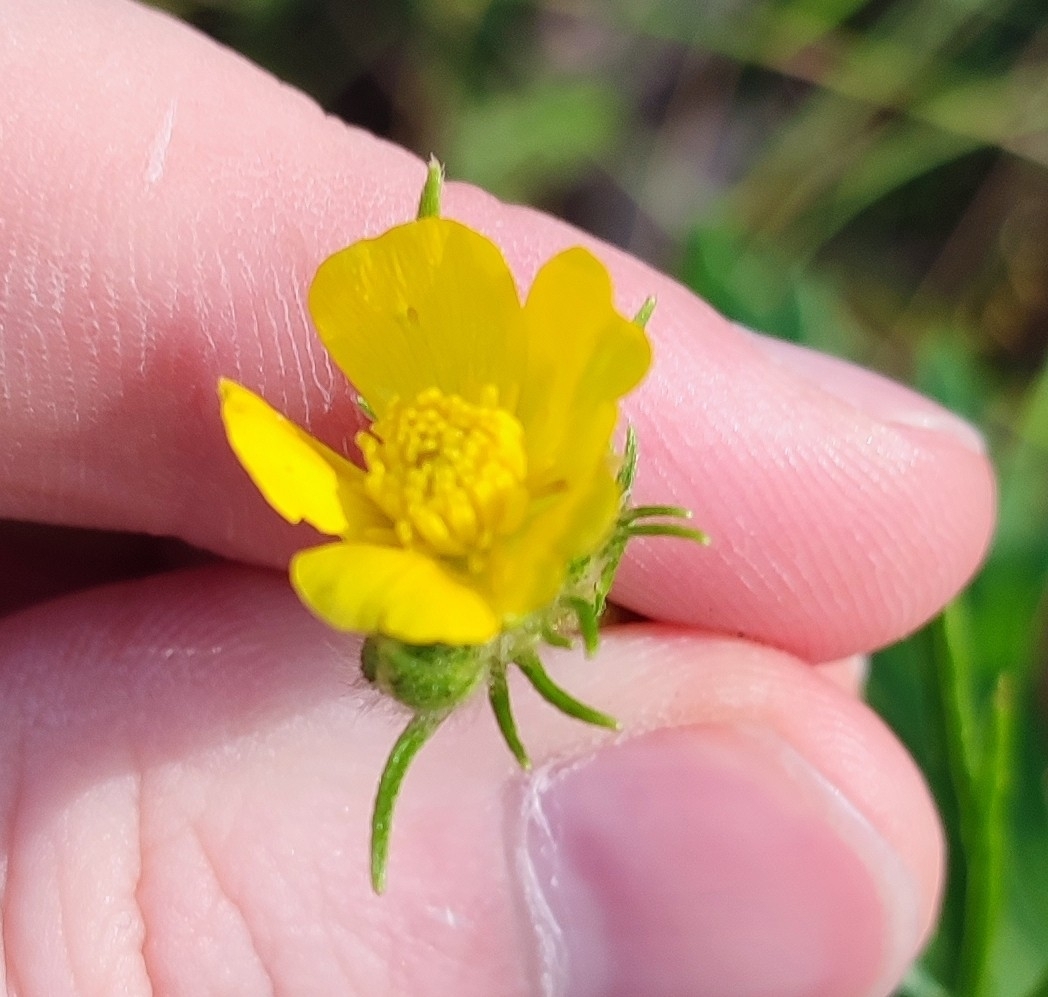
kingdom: Plantae
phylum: Tracheophyta
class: Magnoliopsida
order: Ranunculales
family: Ranunculaceae
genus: Ranunculus
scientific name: Ranunculus polyanthemos
